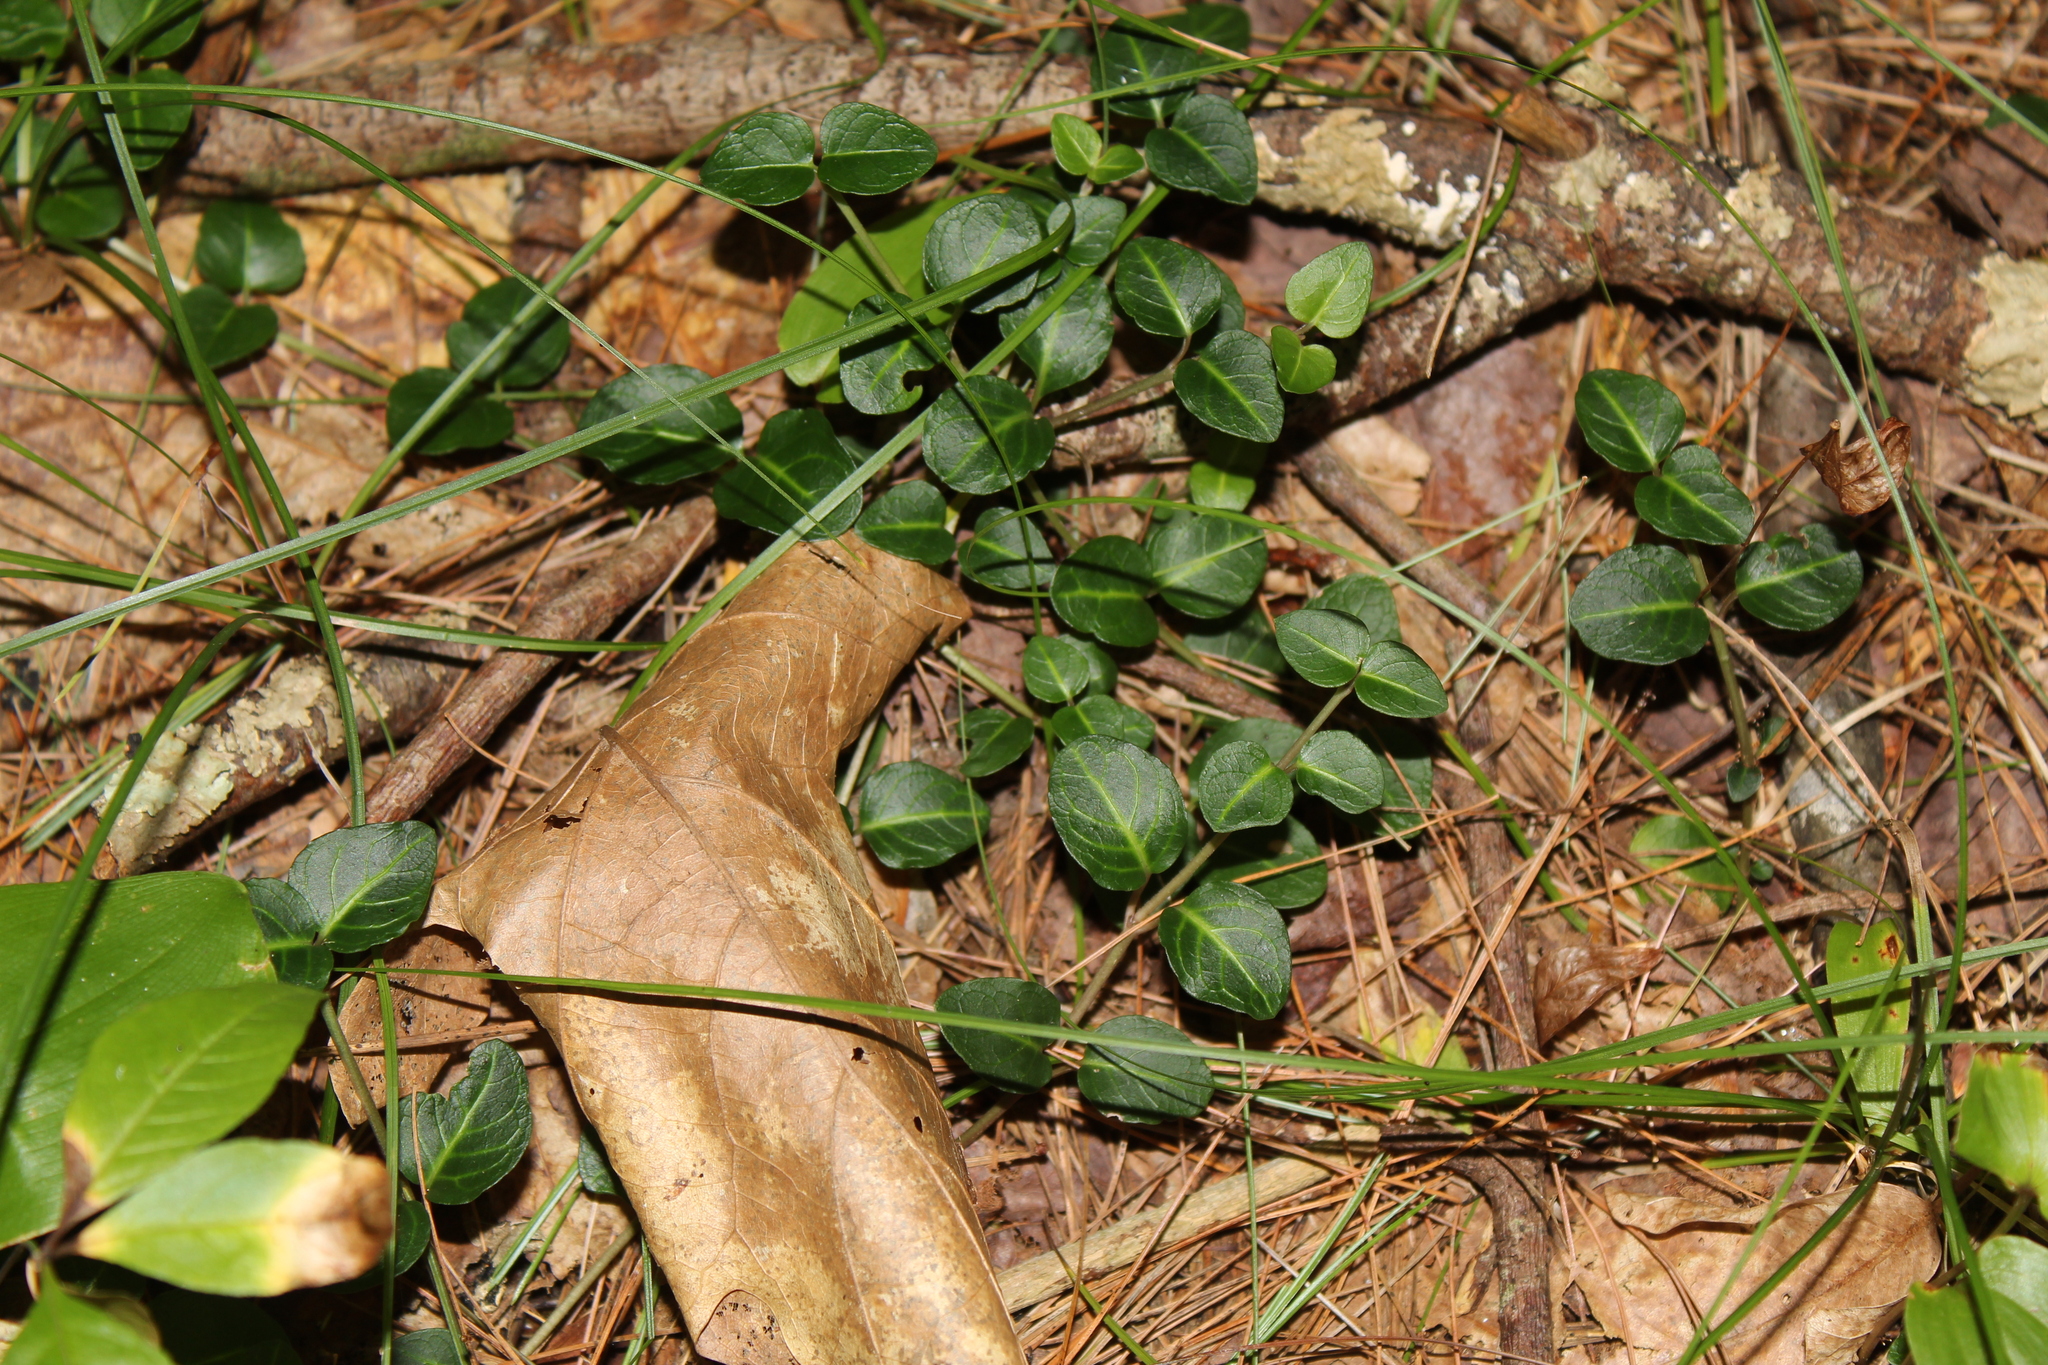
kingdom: Plantae
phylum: Tracheophyta
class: Magnoliopsida
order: Gentianales
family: Rubiaceae
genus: Mitchella
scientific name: Mitchella repens
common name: Partridge-berry
